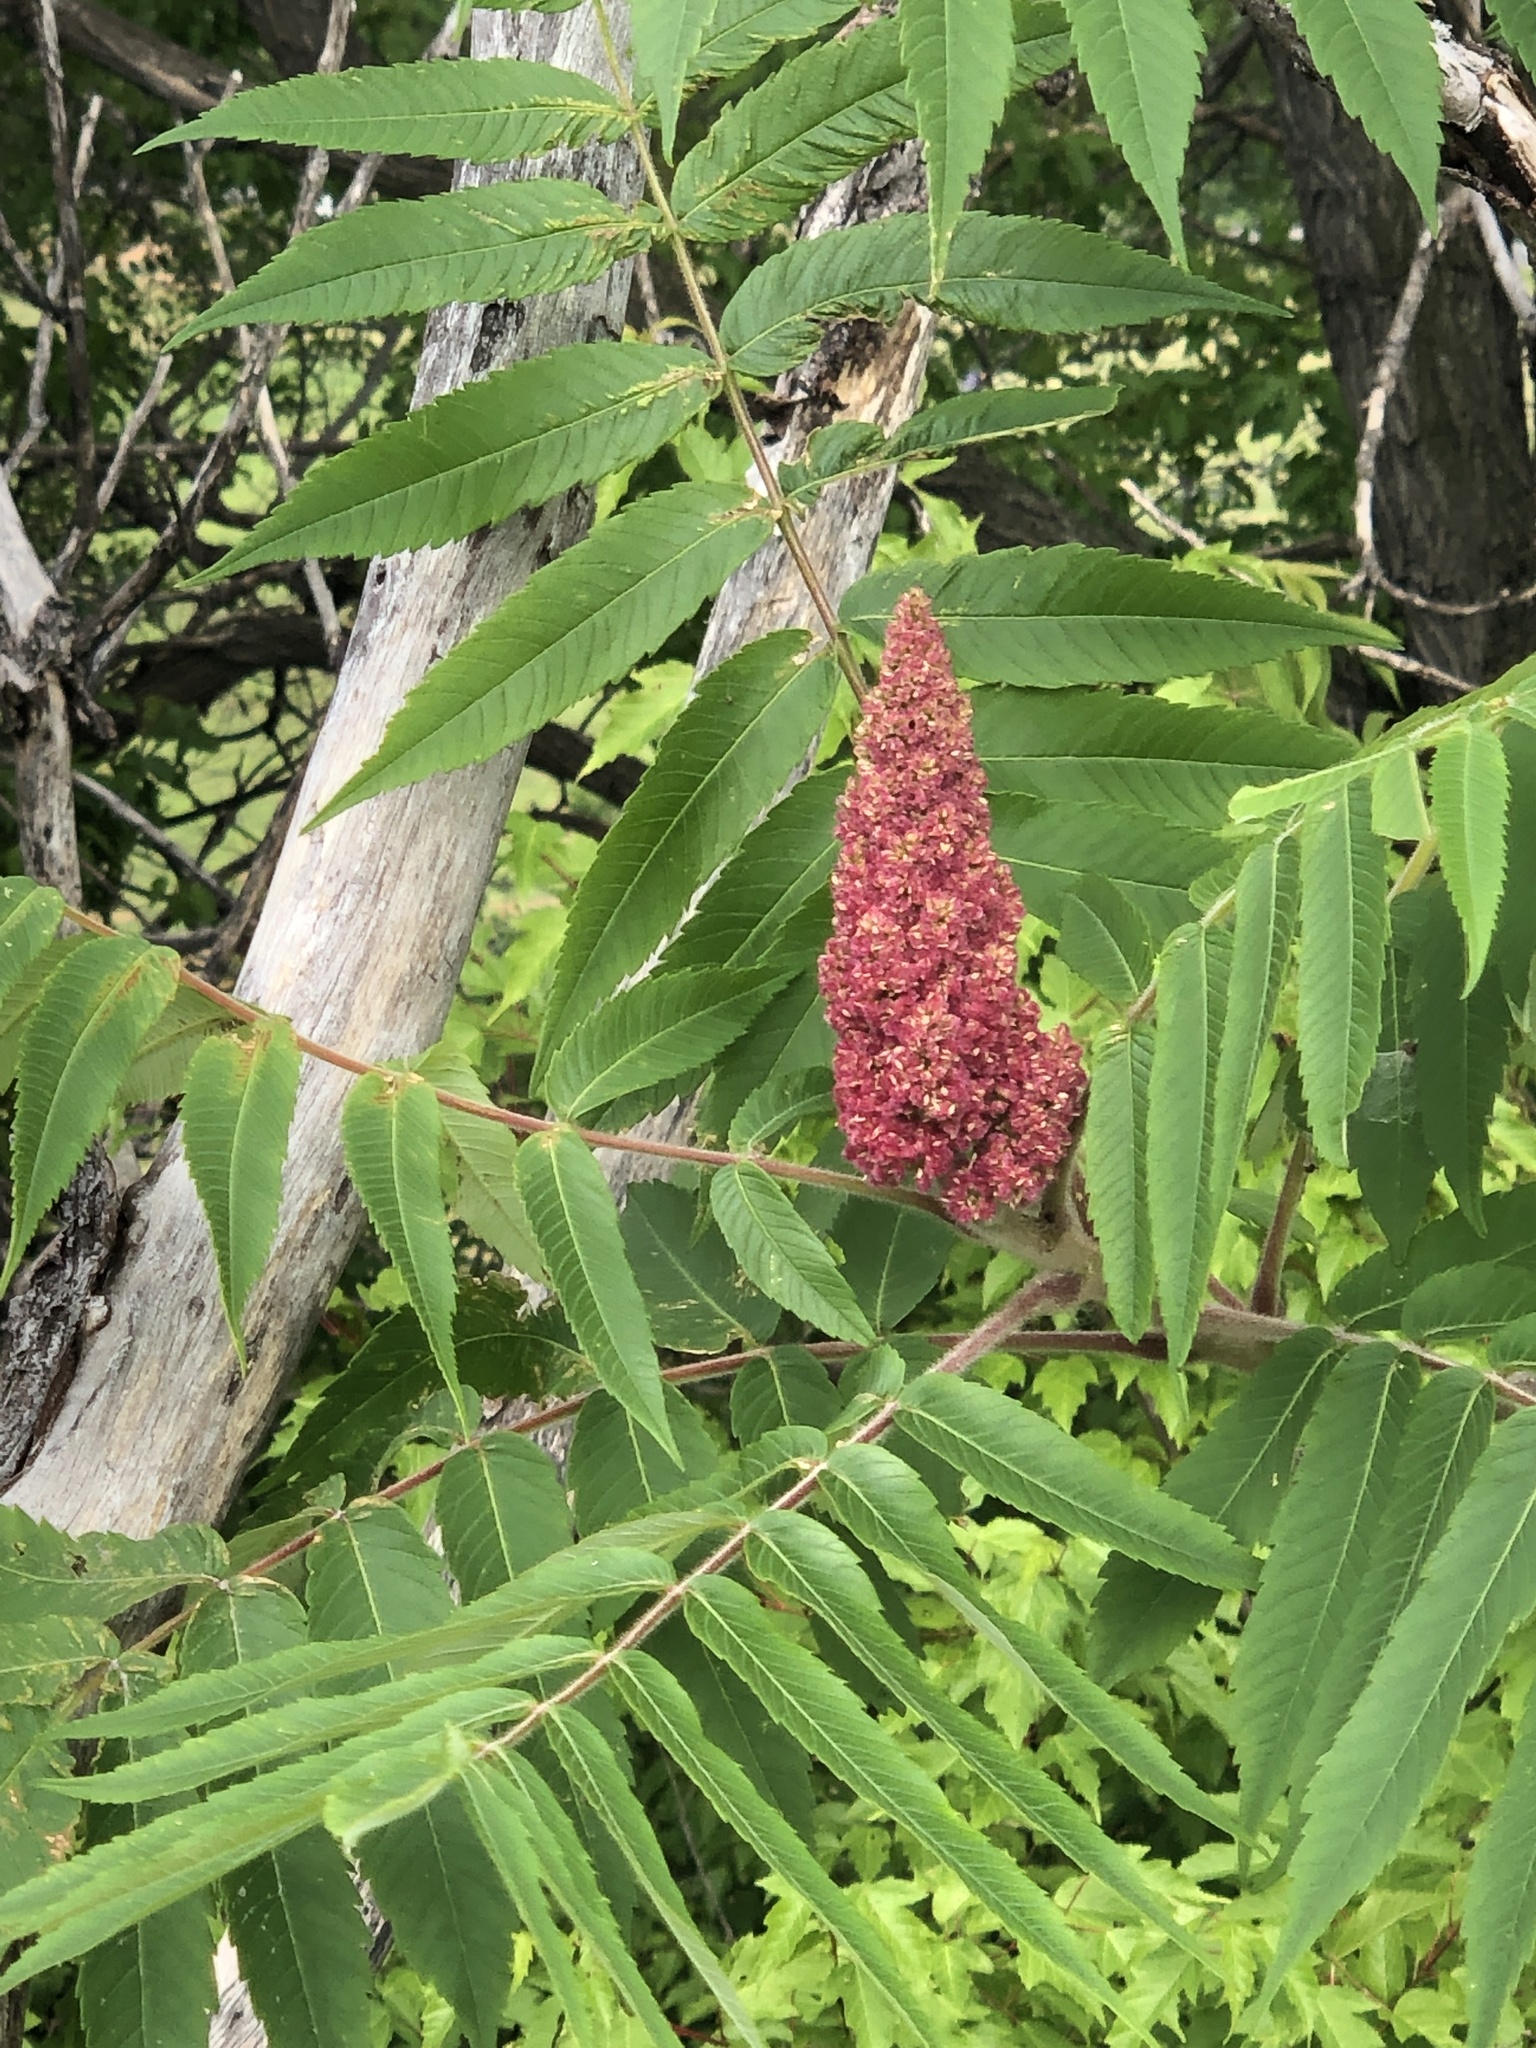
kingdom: Plantae
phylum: Tracheophyta
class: Magnoliopsida
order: Sapindales
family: Anacardiaceae
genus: Rhus
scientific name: Rhus typhina
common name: Staghorn sumac
